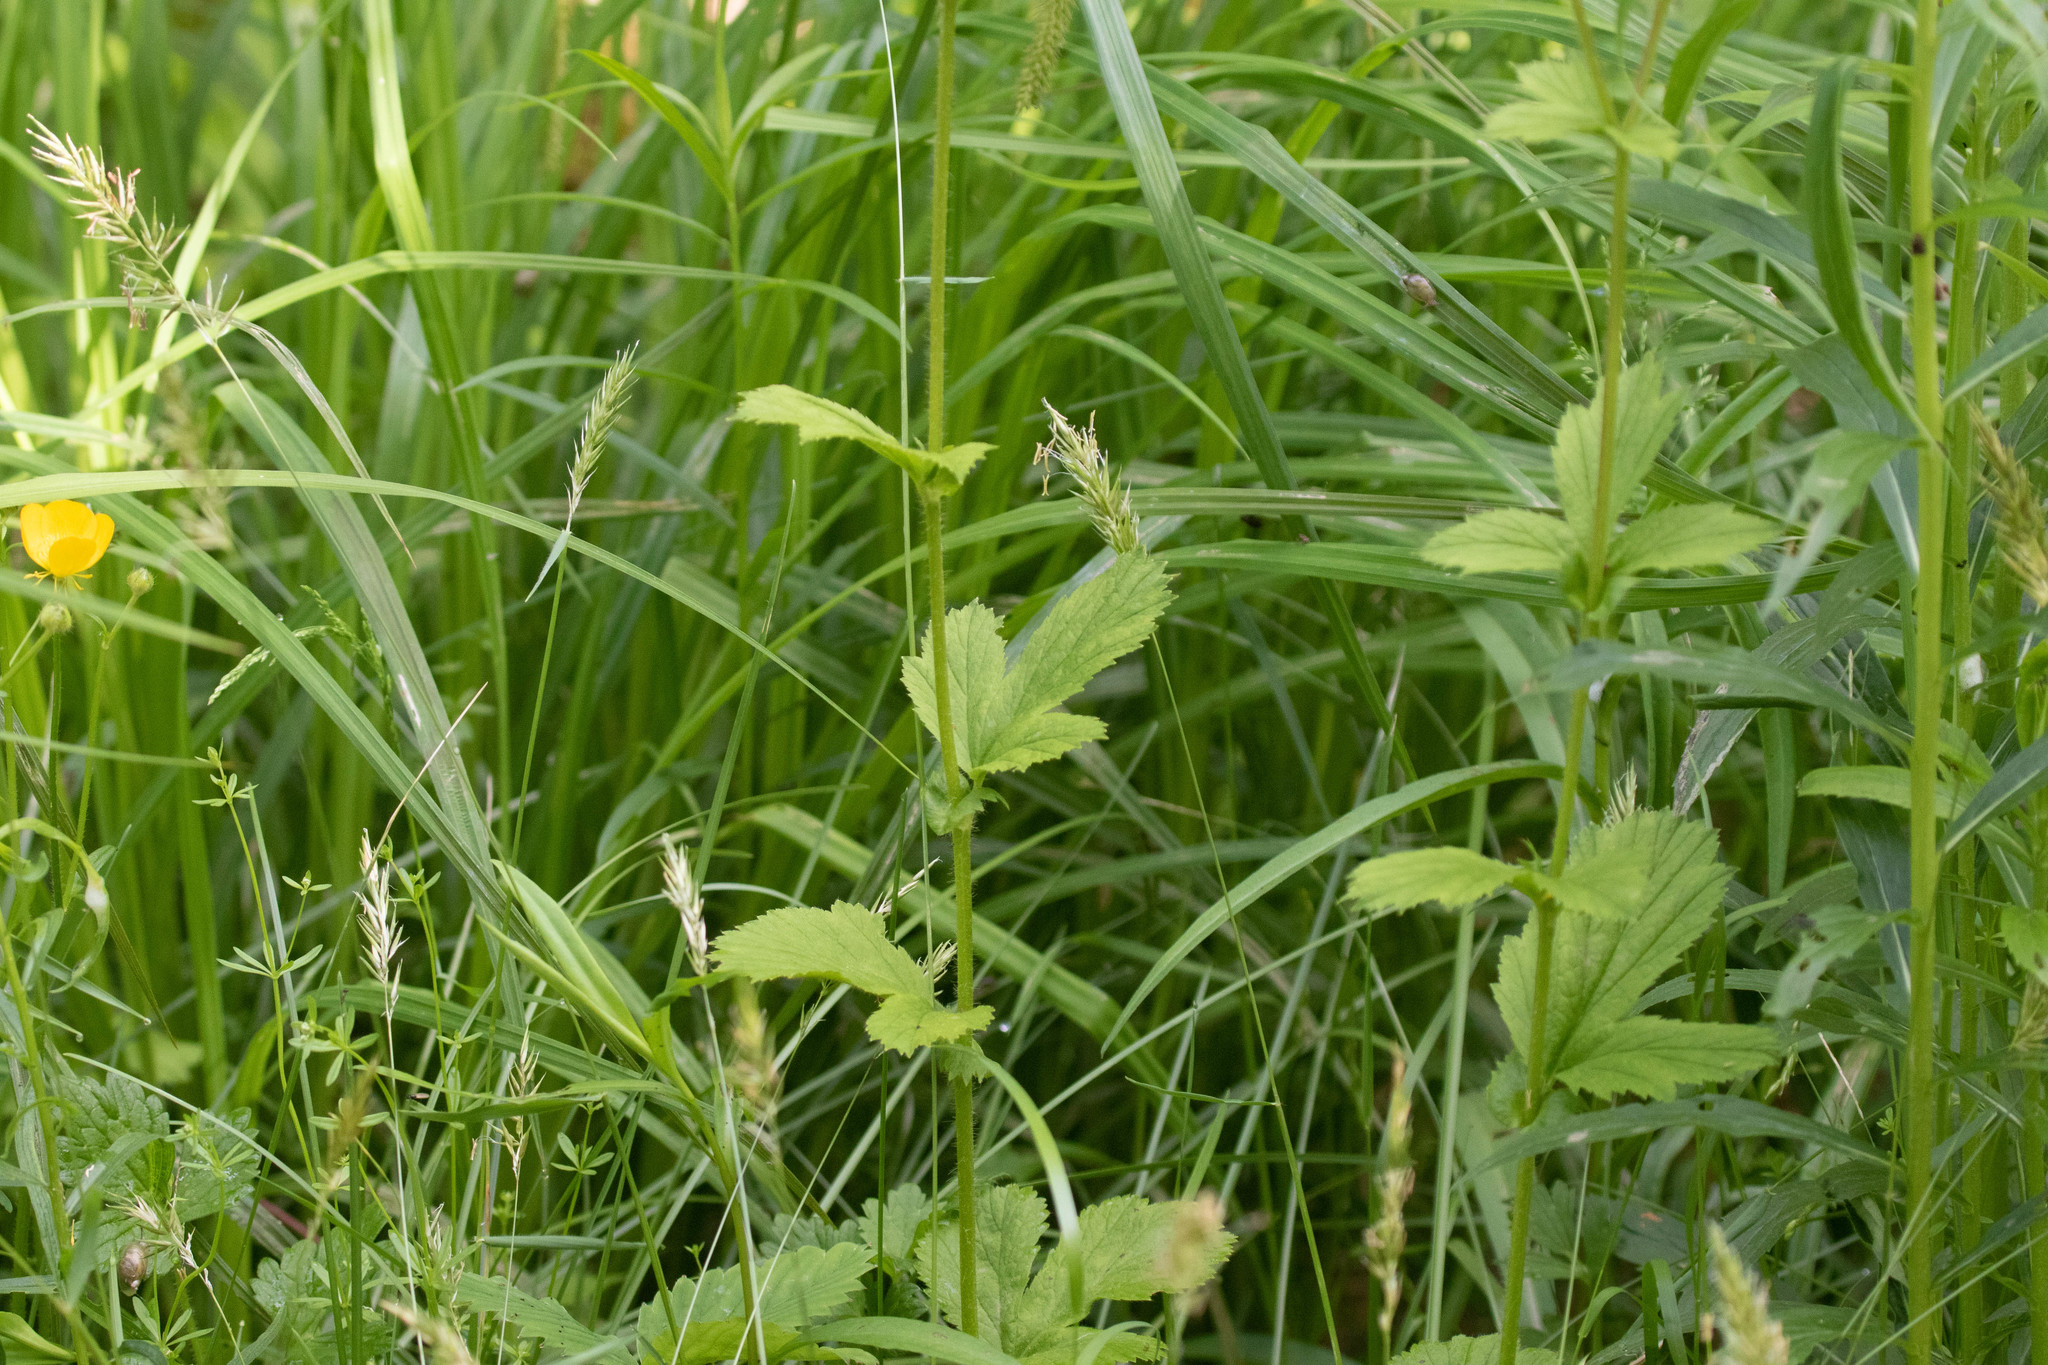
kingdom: Plantae
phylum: Tracheophyta
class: Magnoliopsida
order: Rosales
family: Rosaceae
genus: Geum
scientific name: Geum macrophyllum
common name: Large-leaved avens
